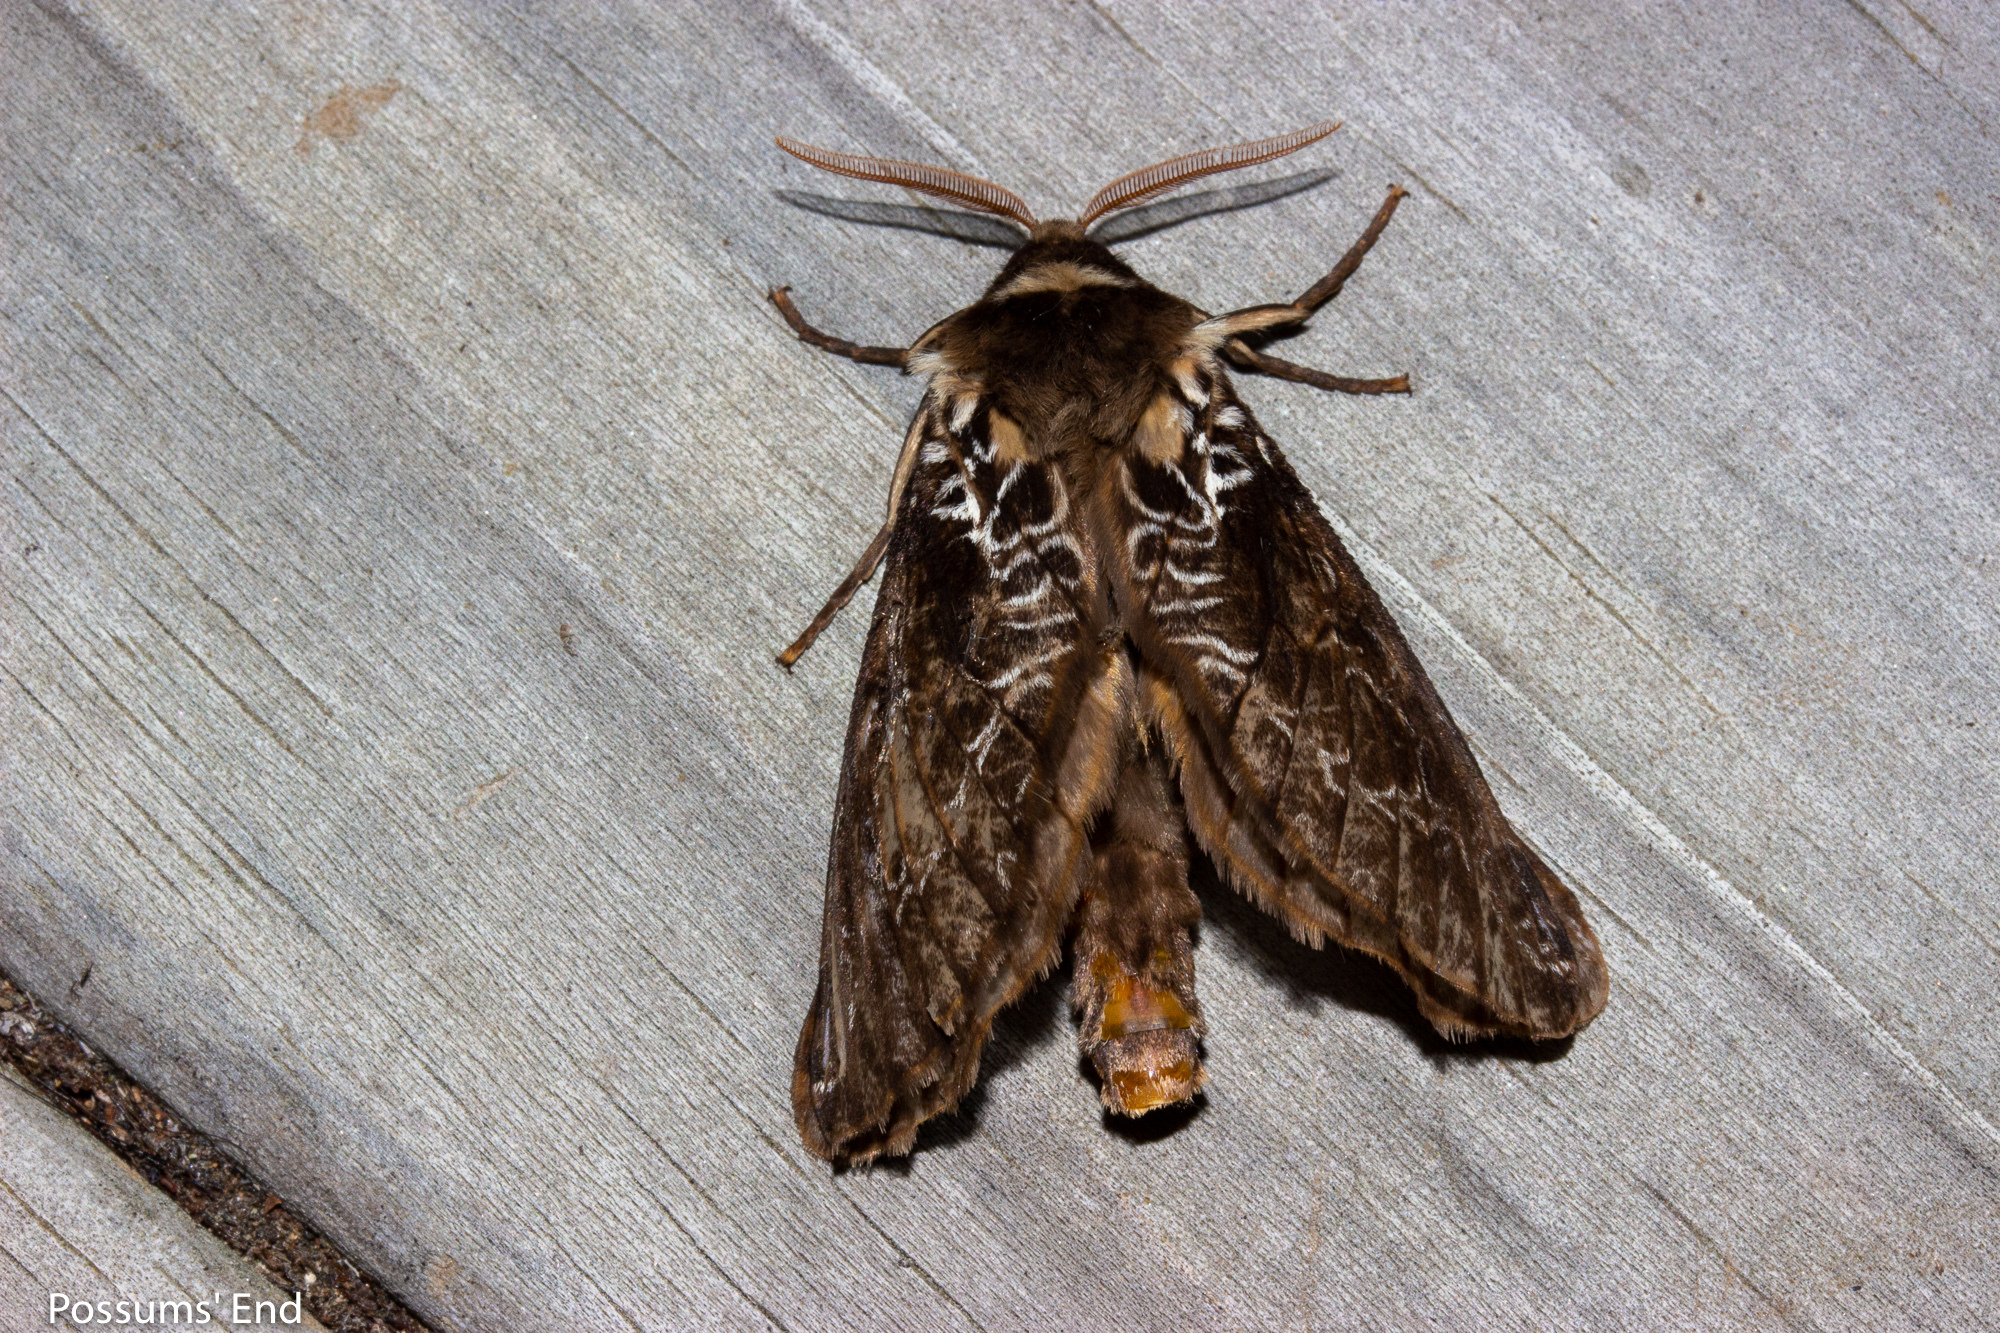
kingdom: Animalia
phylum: Arthropoda
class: Insecta
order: Lepidoptera
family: Hepialidae
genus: Aoraia
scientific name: Aoraia rufivena
